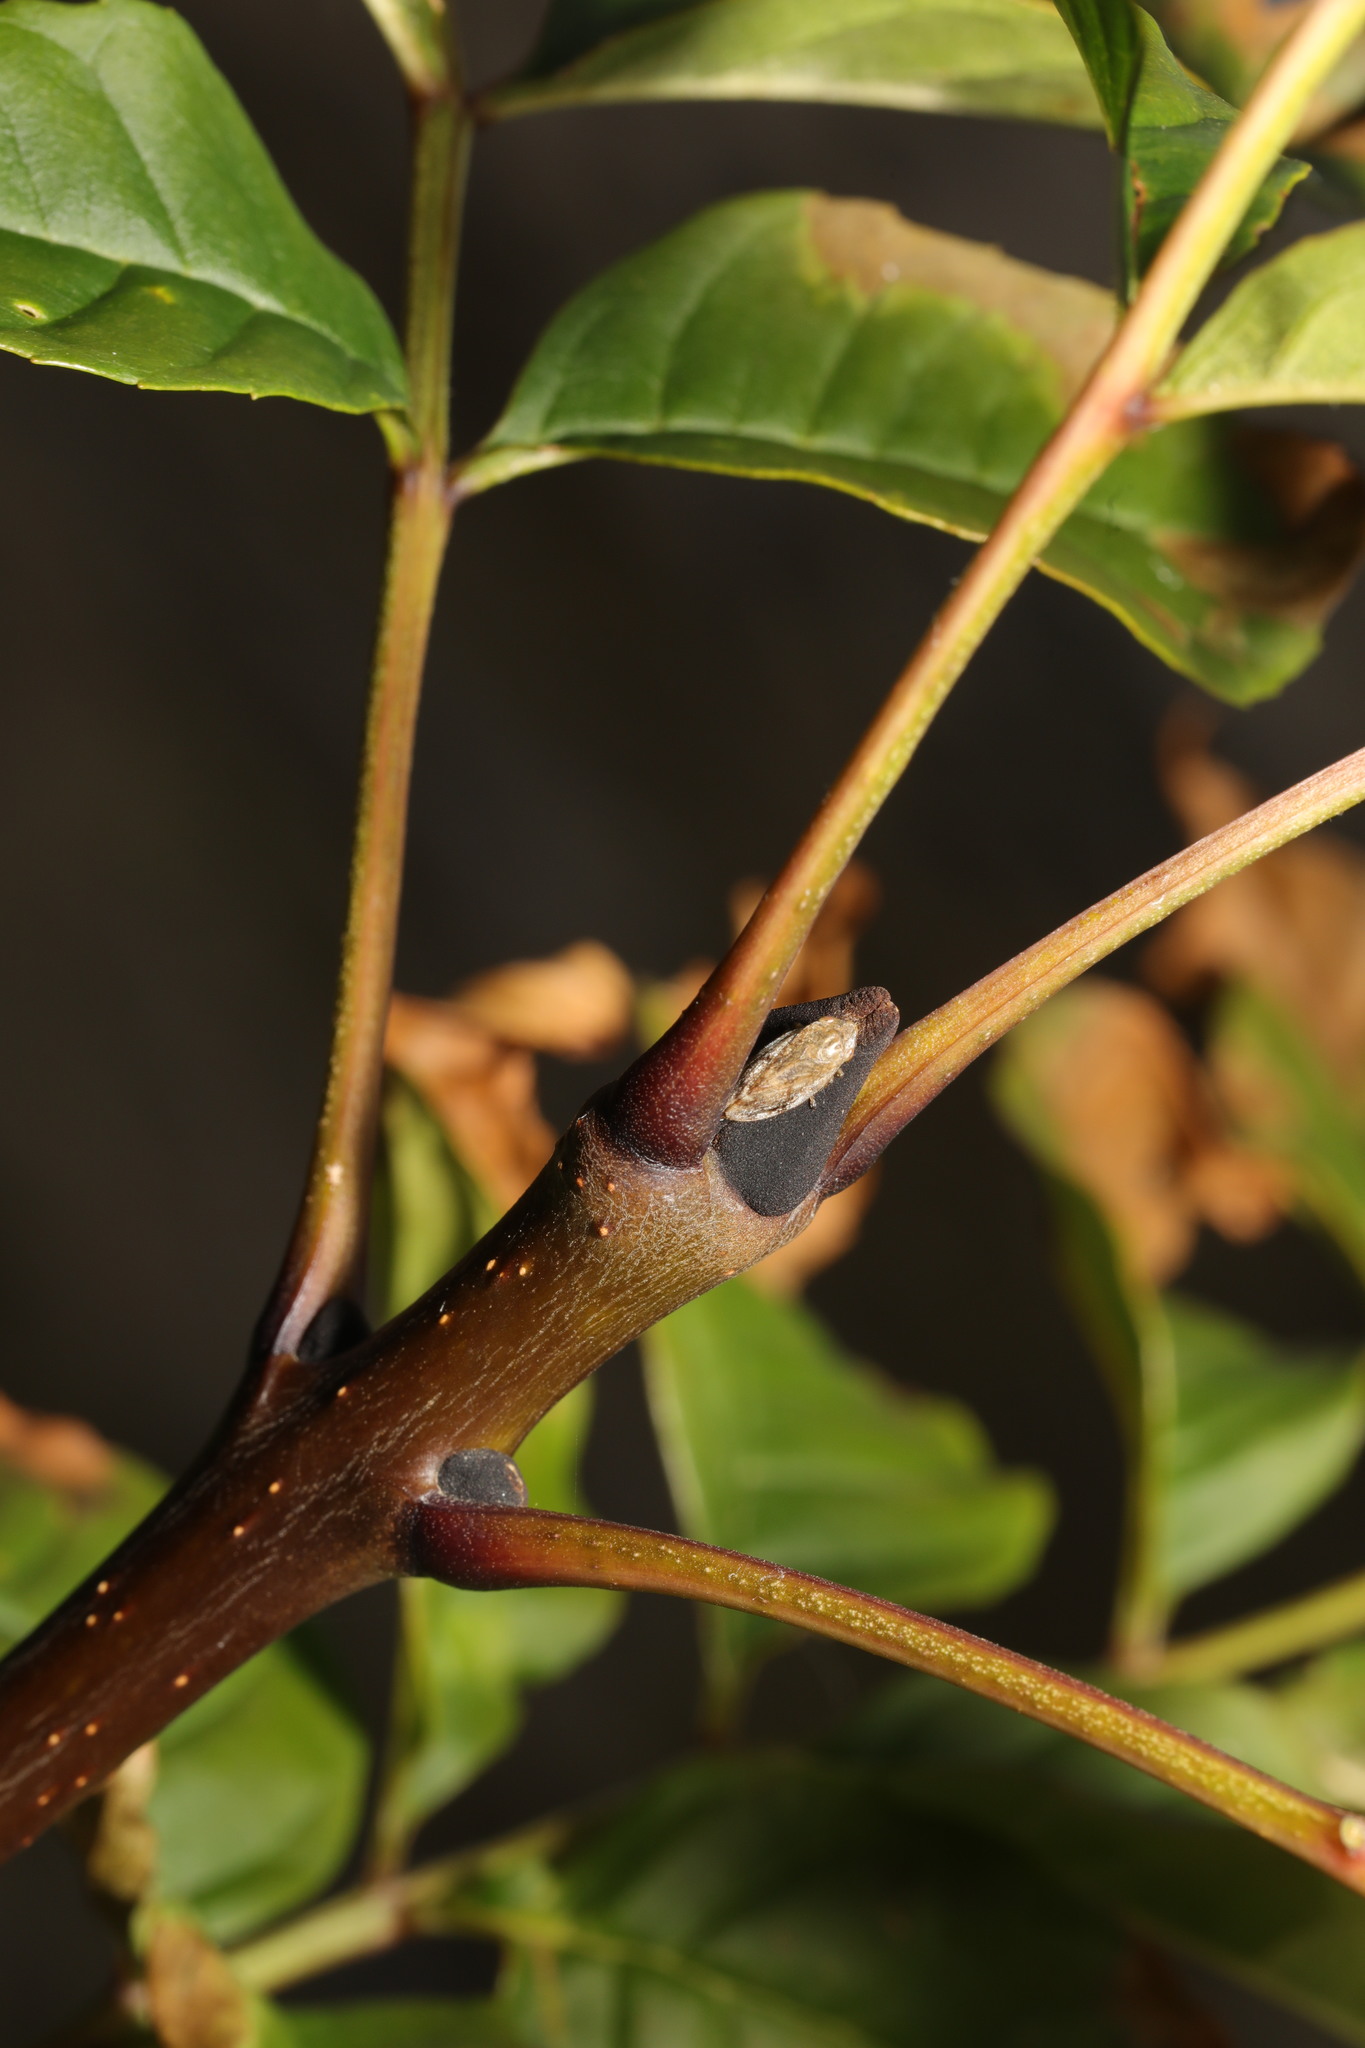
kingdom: Plantae
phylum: Tracheophyta
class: Magnoliopsida
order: Lamiales
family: Oleaceae
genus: Fraxinus
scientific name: Fraxinus excelsior
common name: European ash
